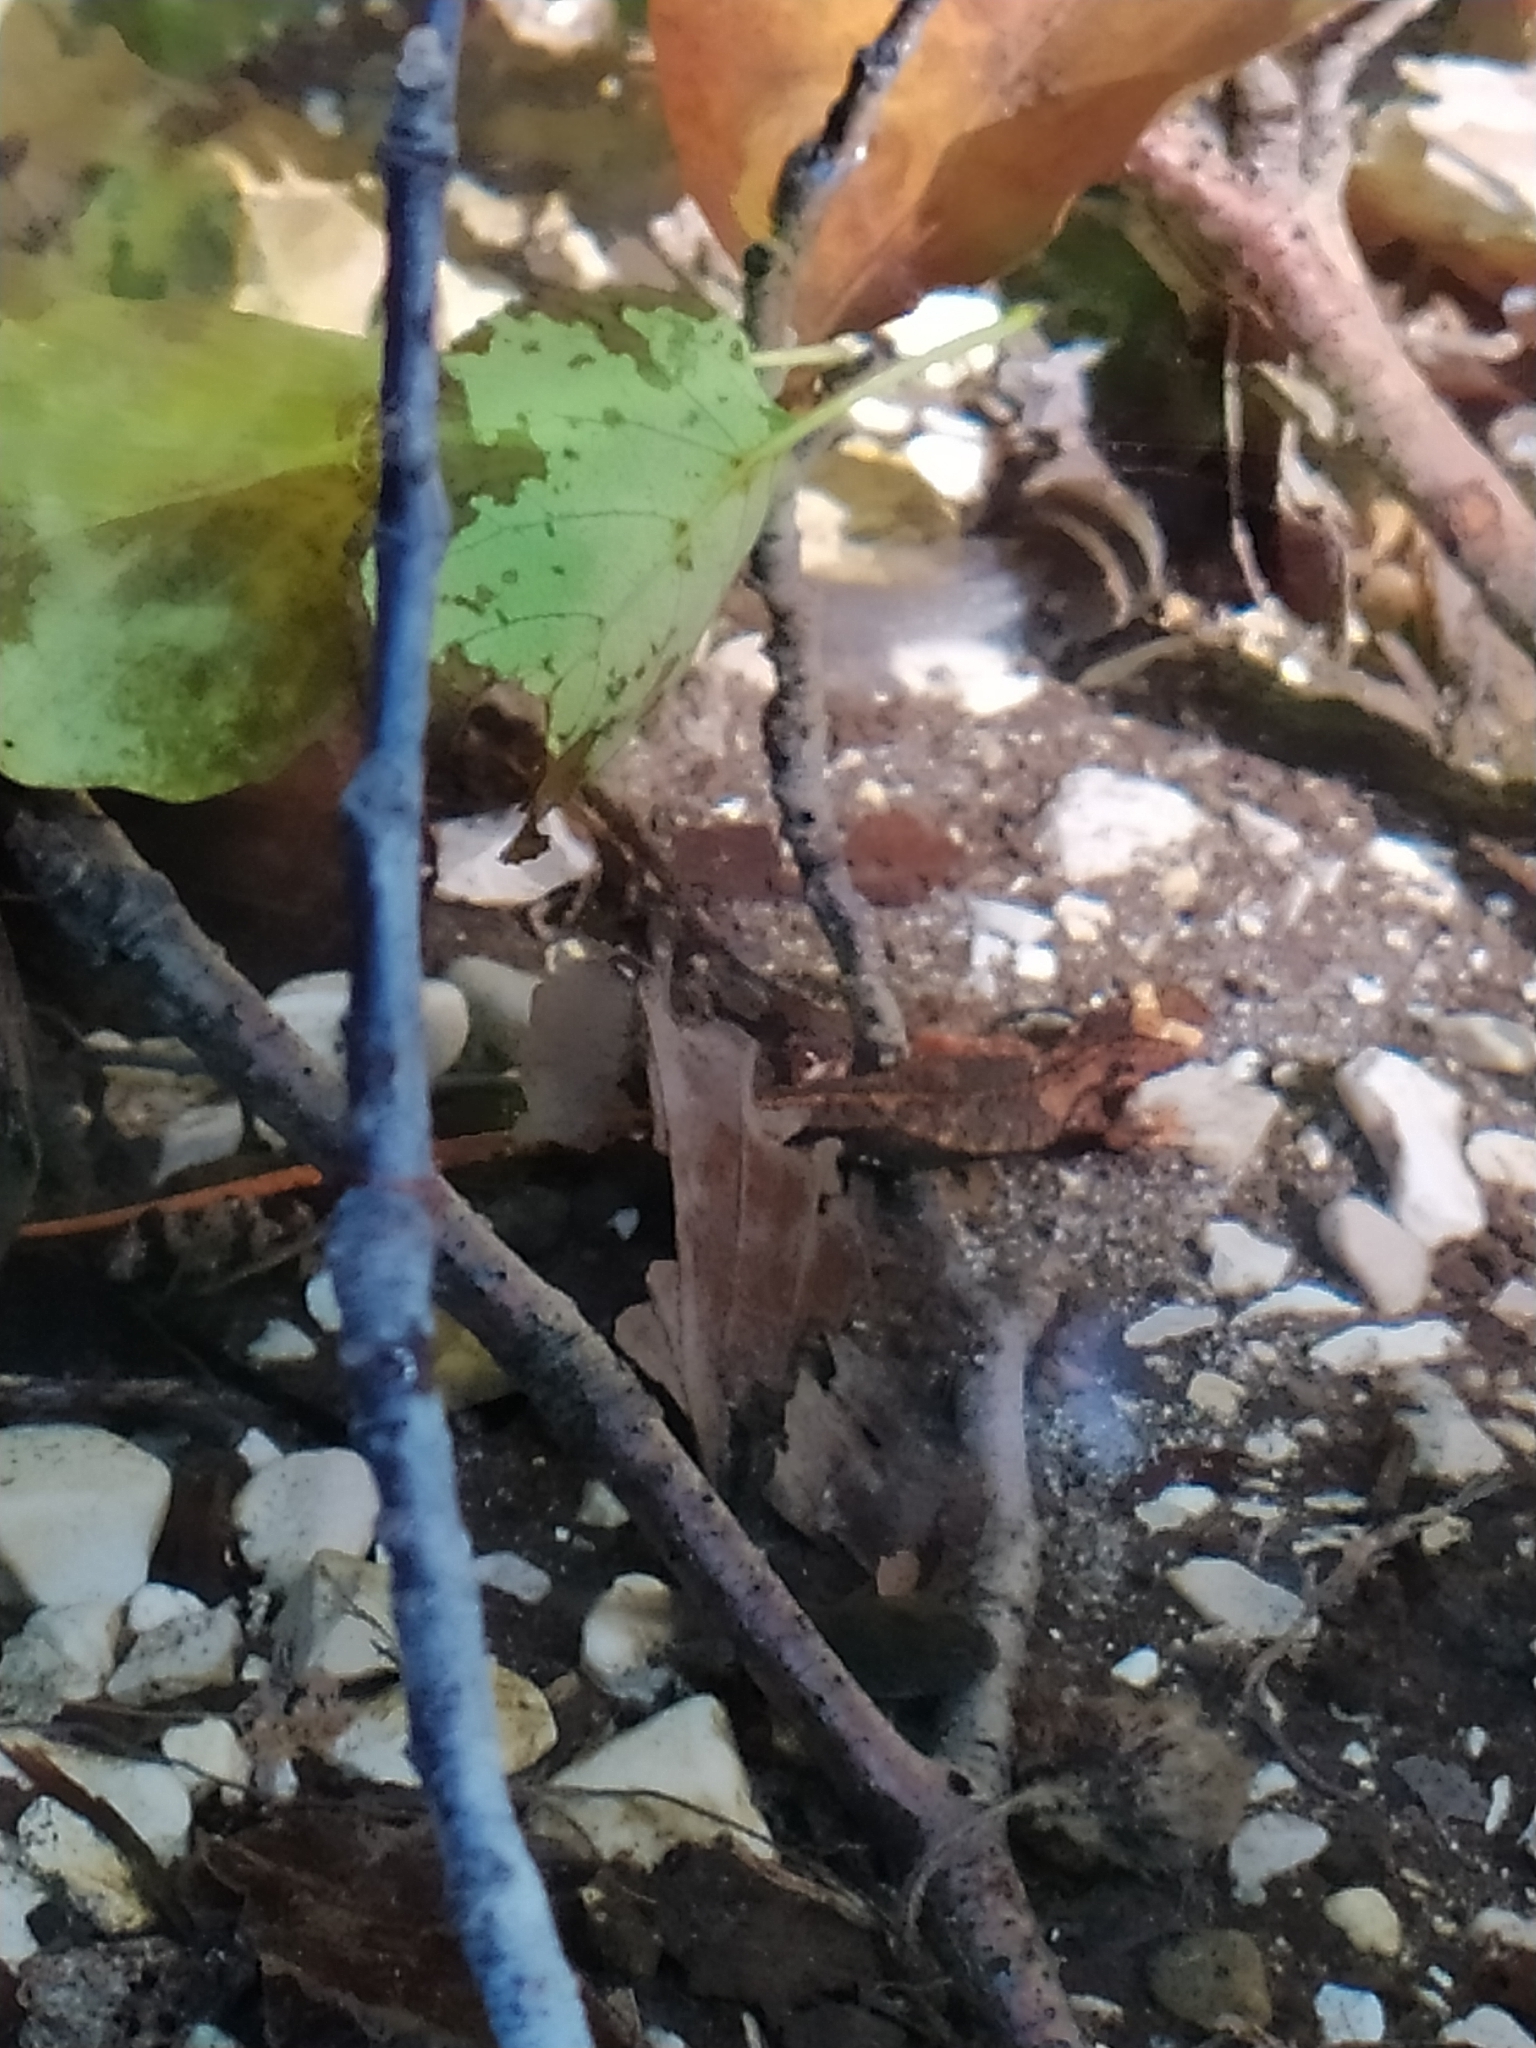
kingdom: Animalia
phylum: Chordata
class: Amphibia
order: Caudata
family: Salamandridae
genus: Salamandrina
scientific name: Salamandrina terdigitata
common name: Southern spectacled salamander
